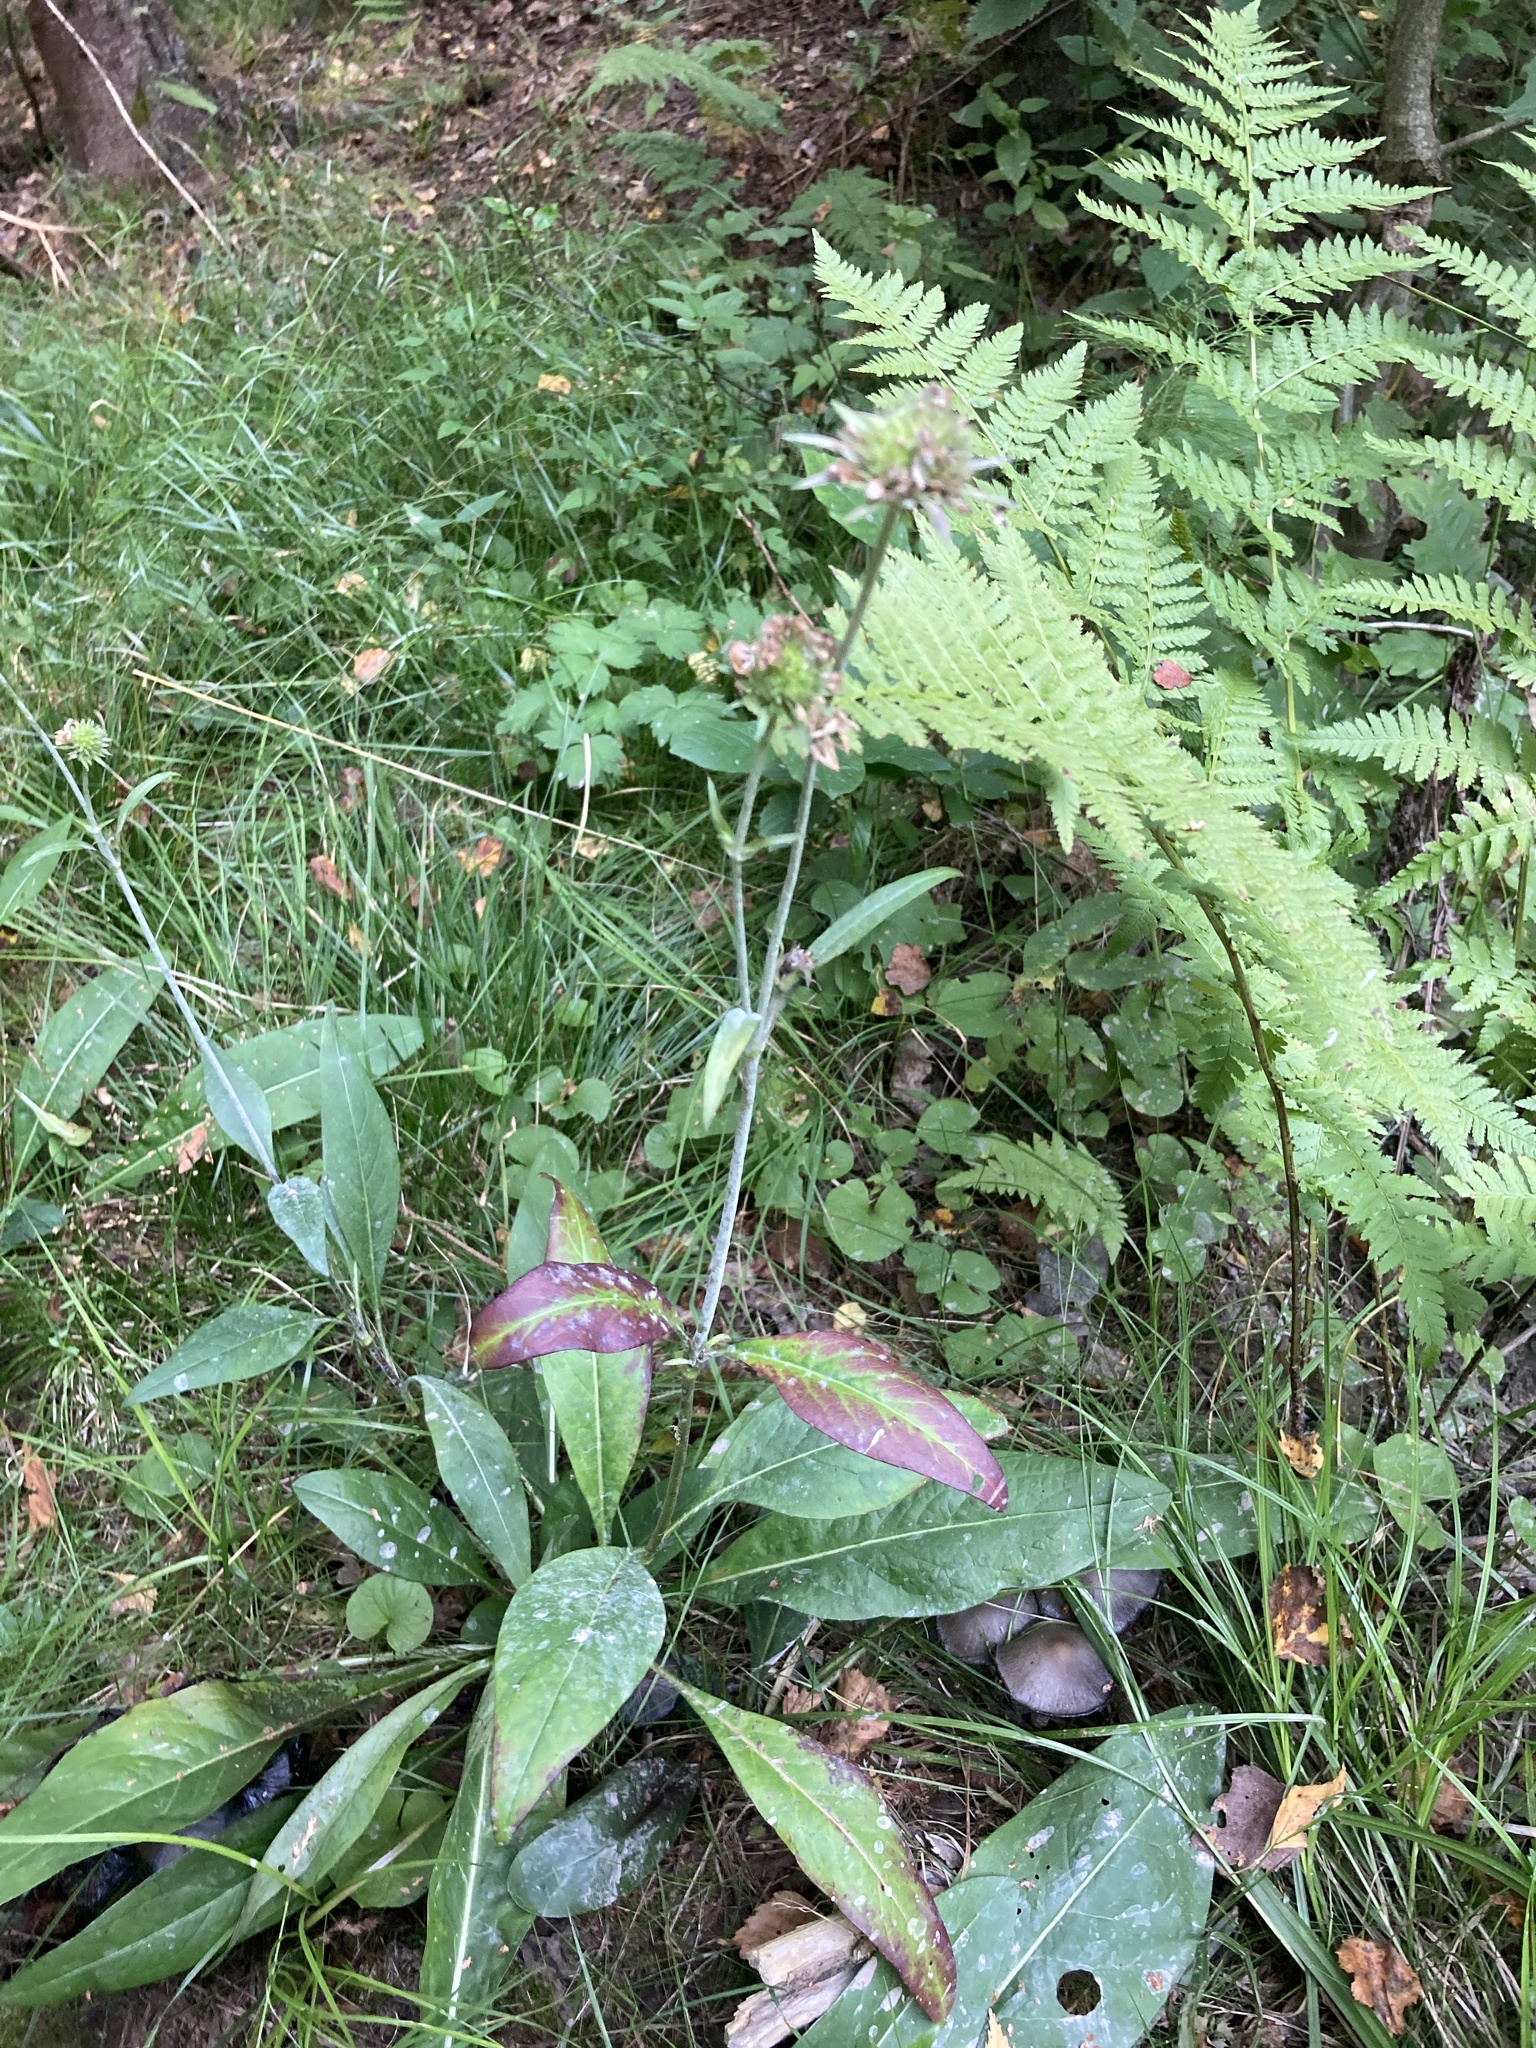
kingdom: Plantae
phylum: Tracheophyta
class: Magnoliopsida
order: Dipsacales
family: Caprifoliaceae
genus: Succisa
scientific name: Succisa pratensis
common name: Devil's-bit
